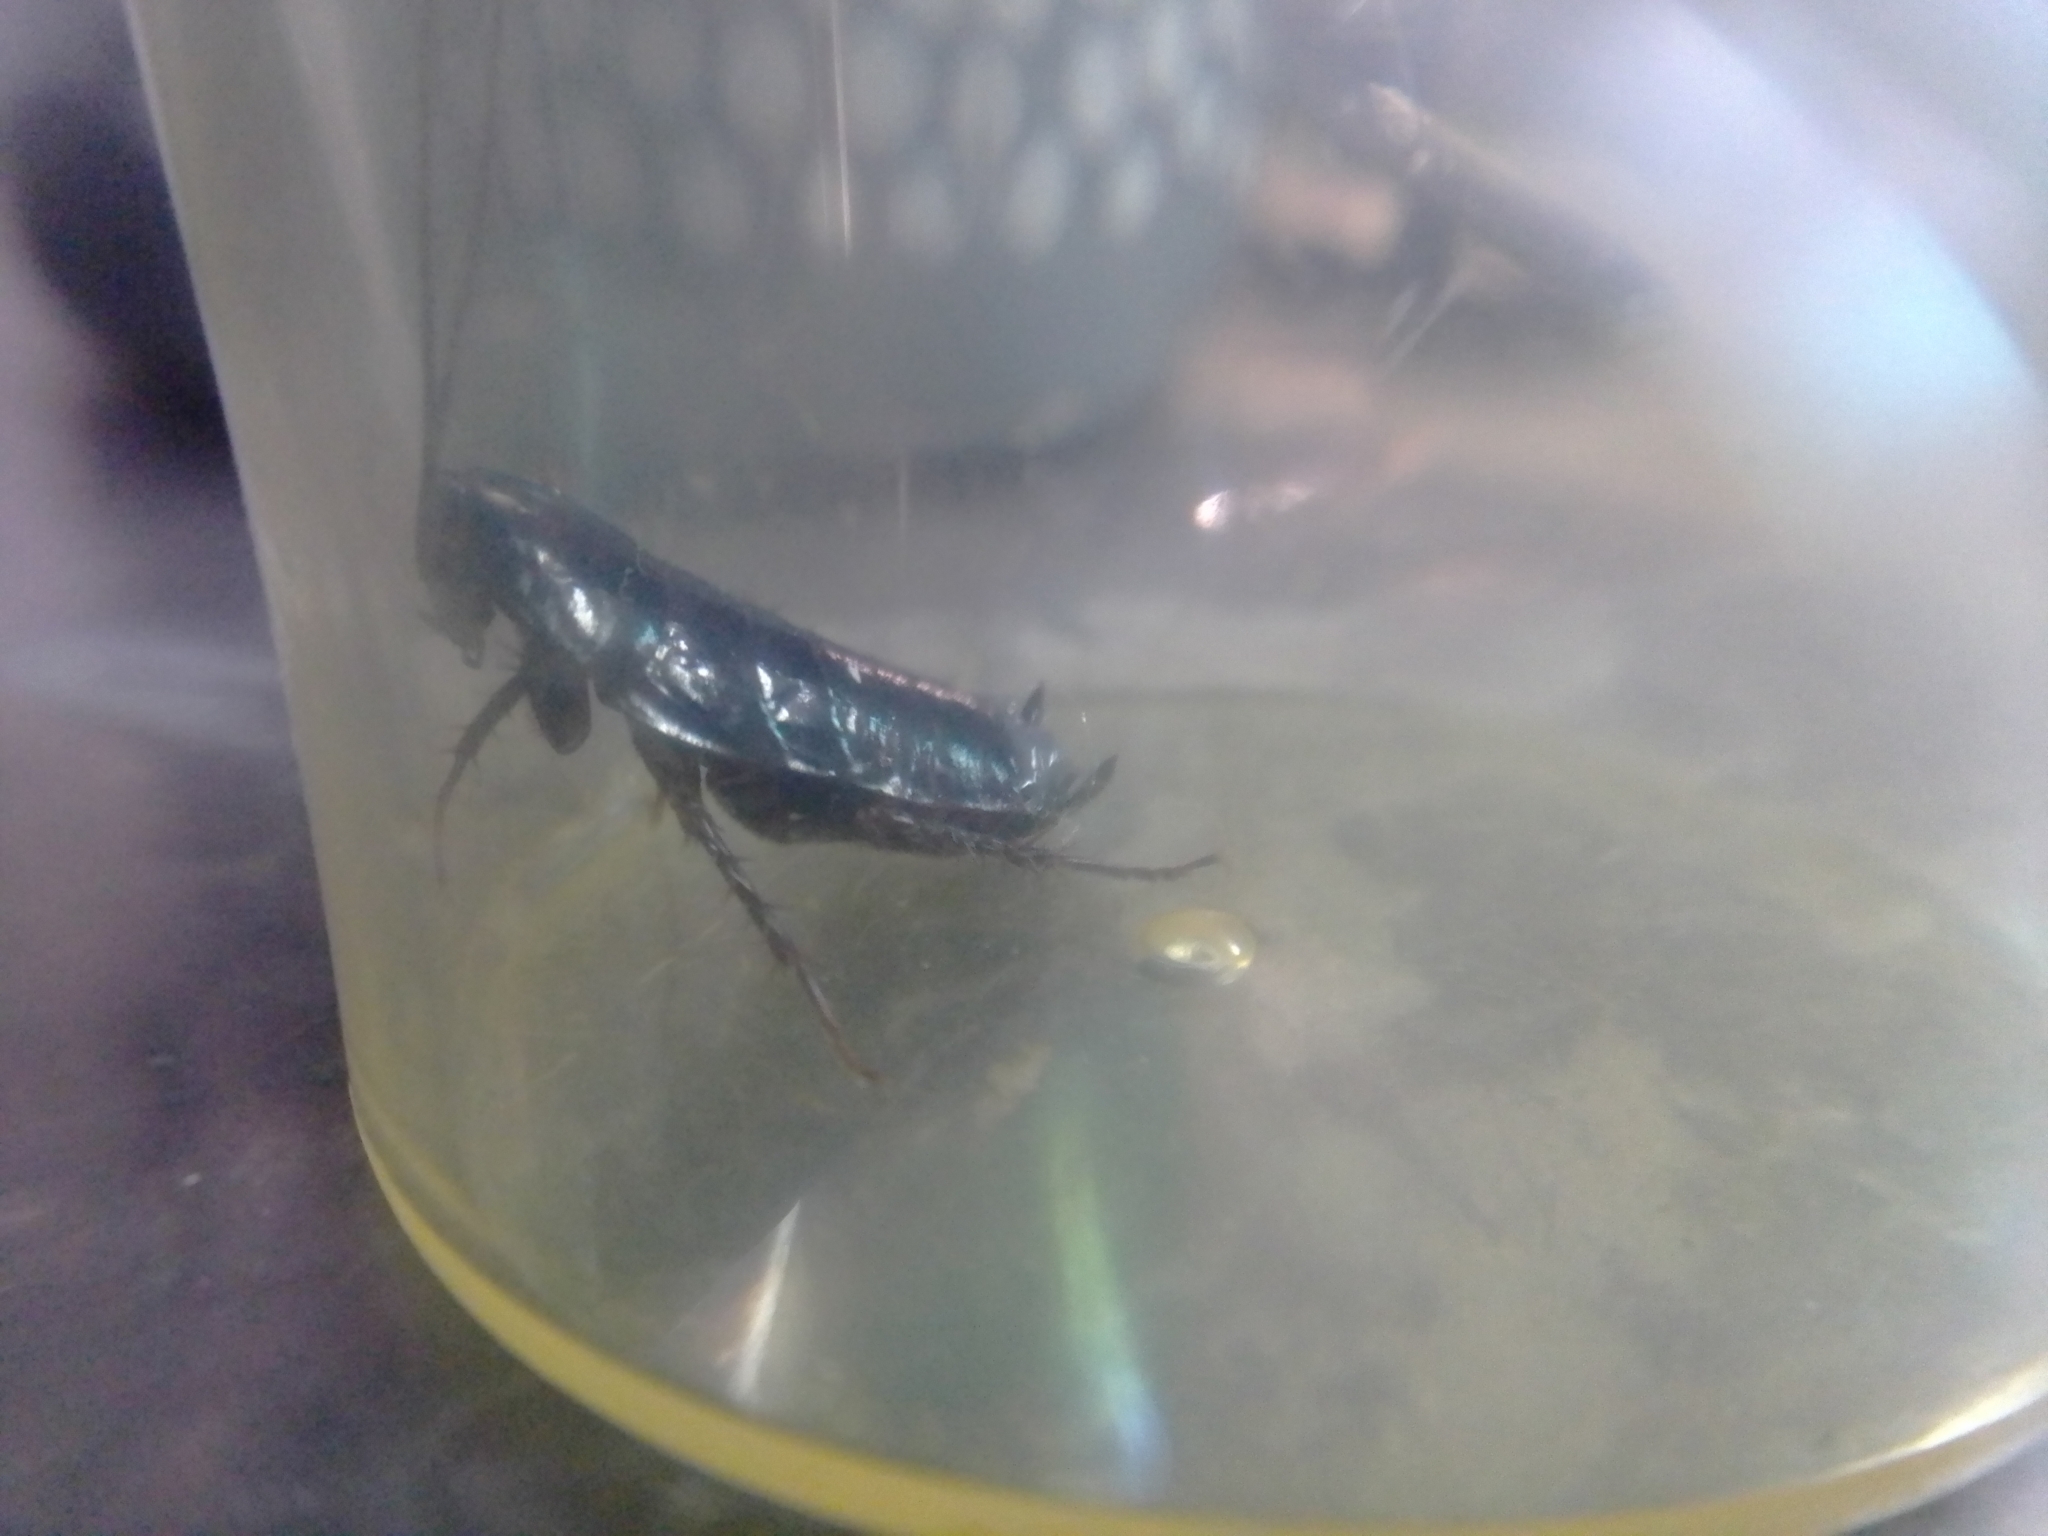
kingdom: Animalia
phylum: Arthropoda
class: Insecta
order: Blattodea
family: Blattidae
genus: Blatta
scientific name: Blatta orientalis
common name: Oriental cockroach
